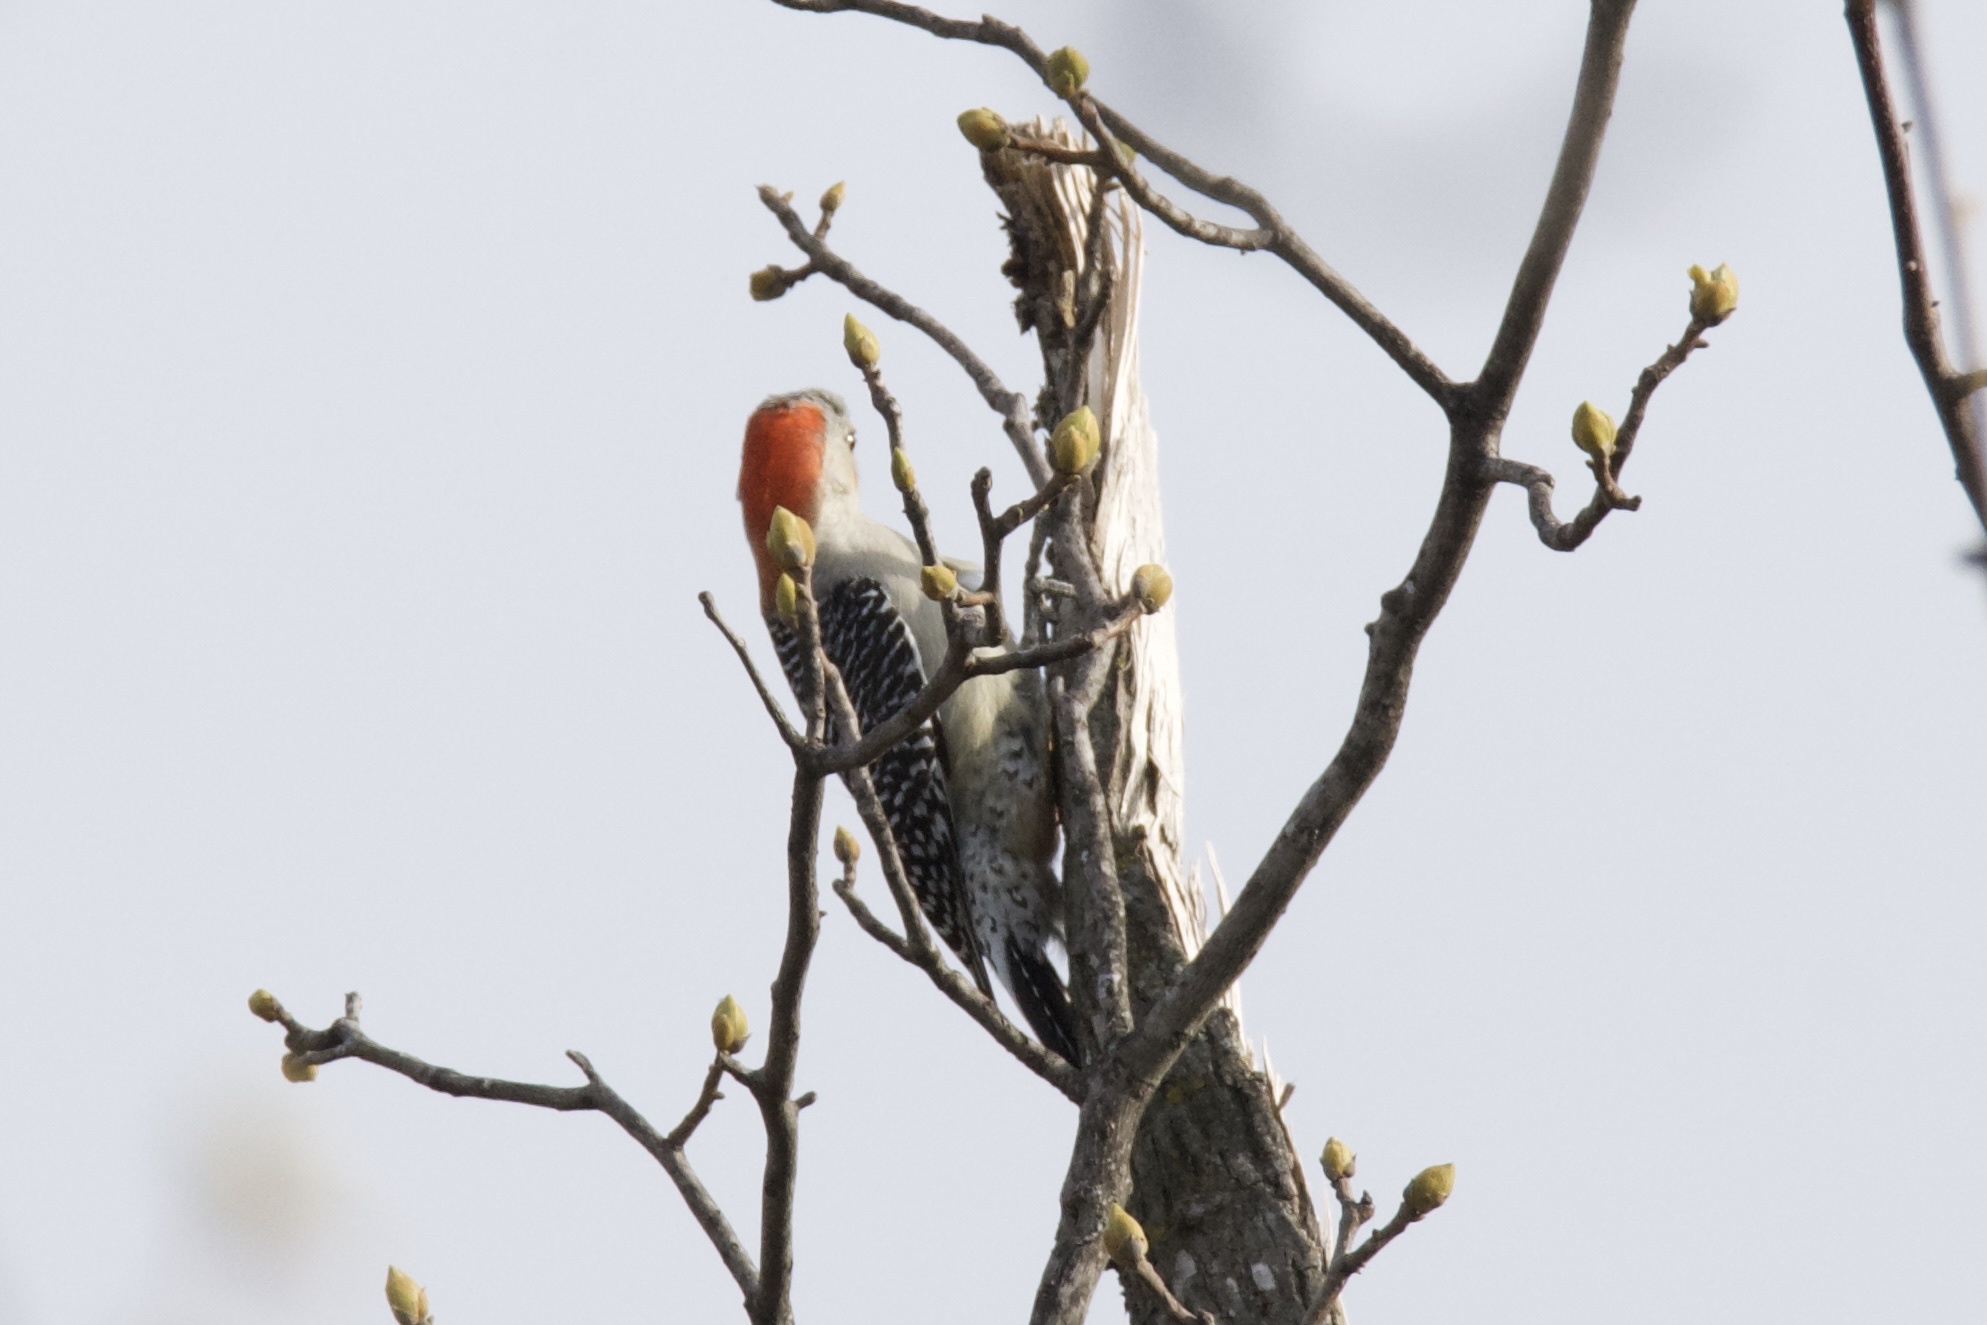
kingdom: Animalia
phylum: Chordata
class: Aves
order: Piciformes
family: Picidae
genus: Melanerpes
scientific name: Melanerpes carolinus
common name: Red-bellied woodpecker
